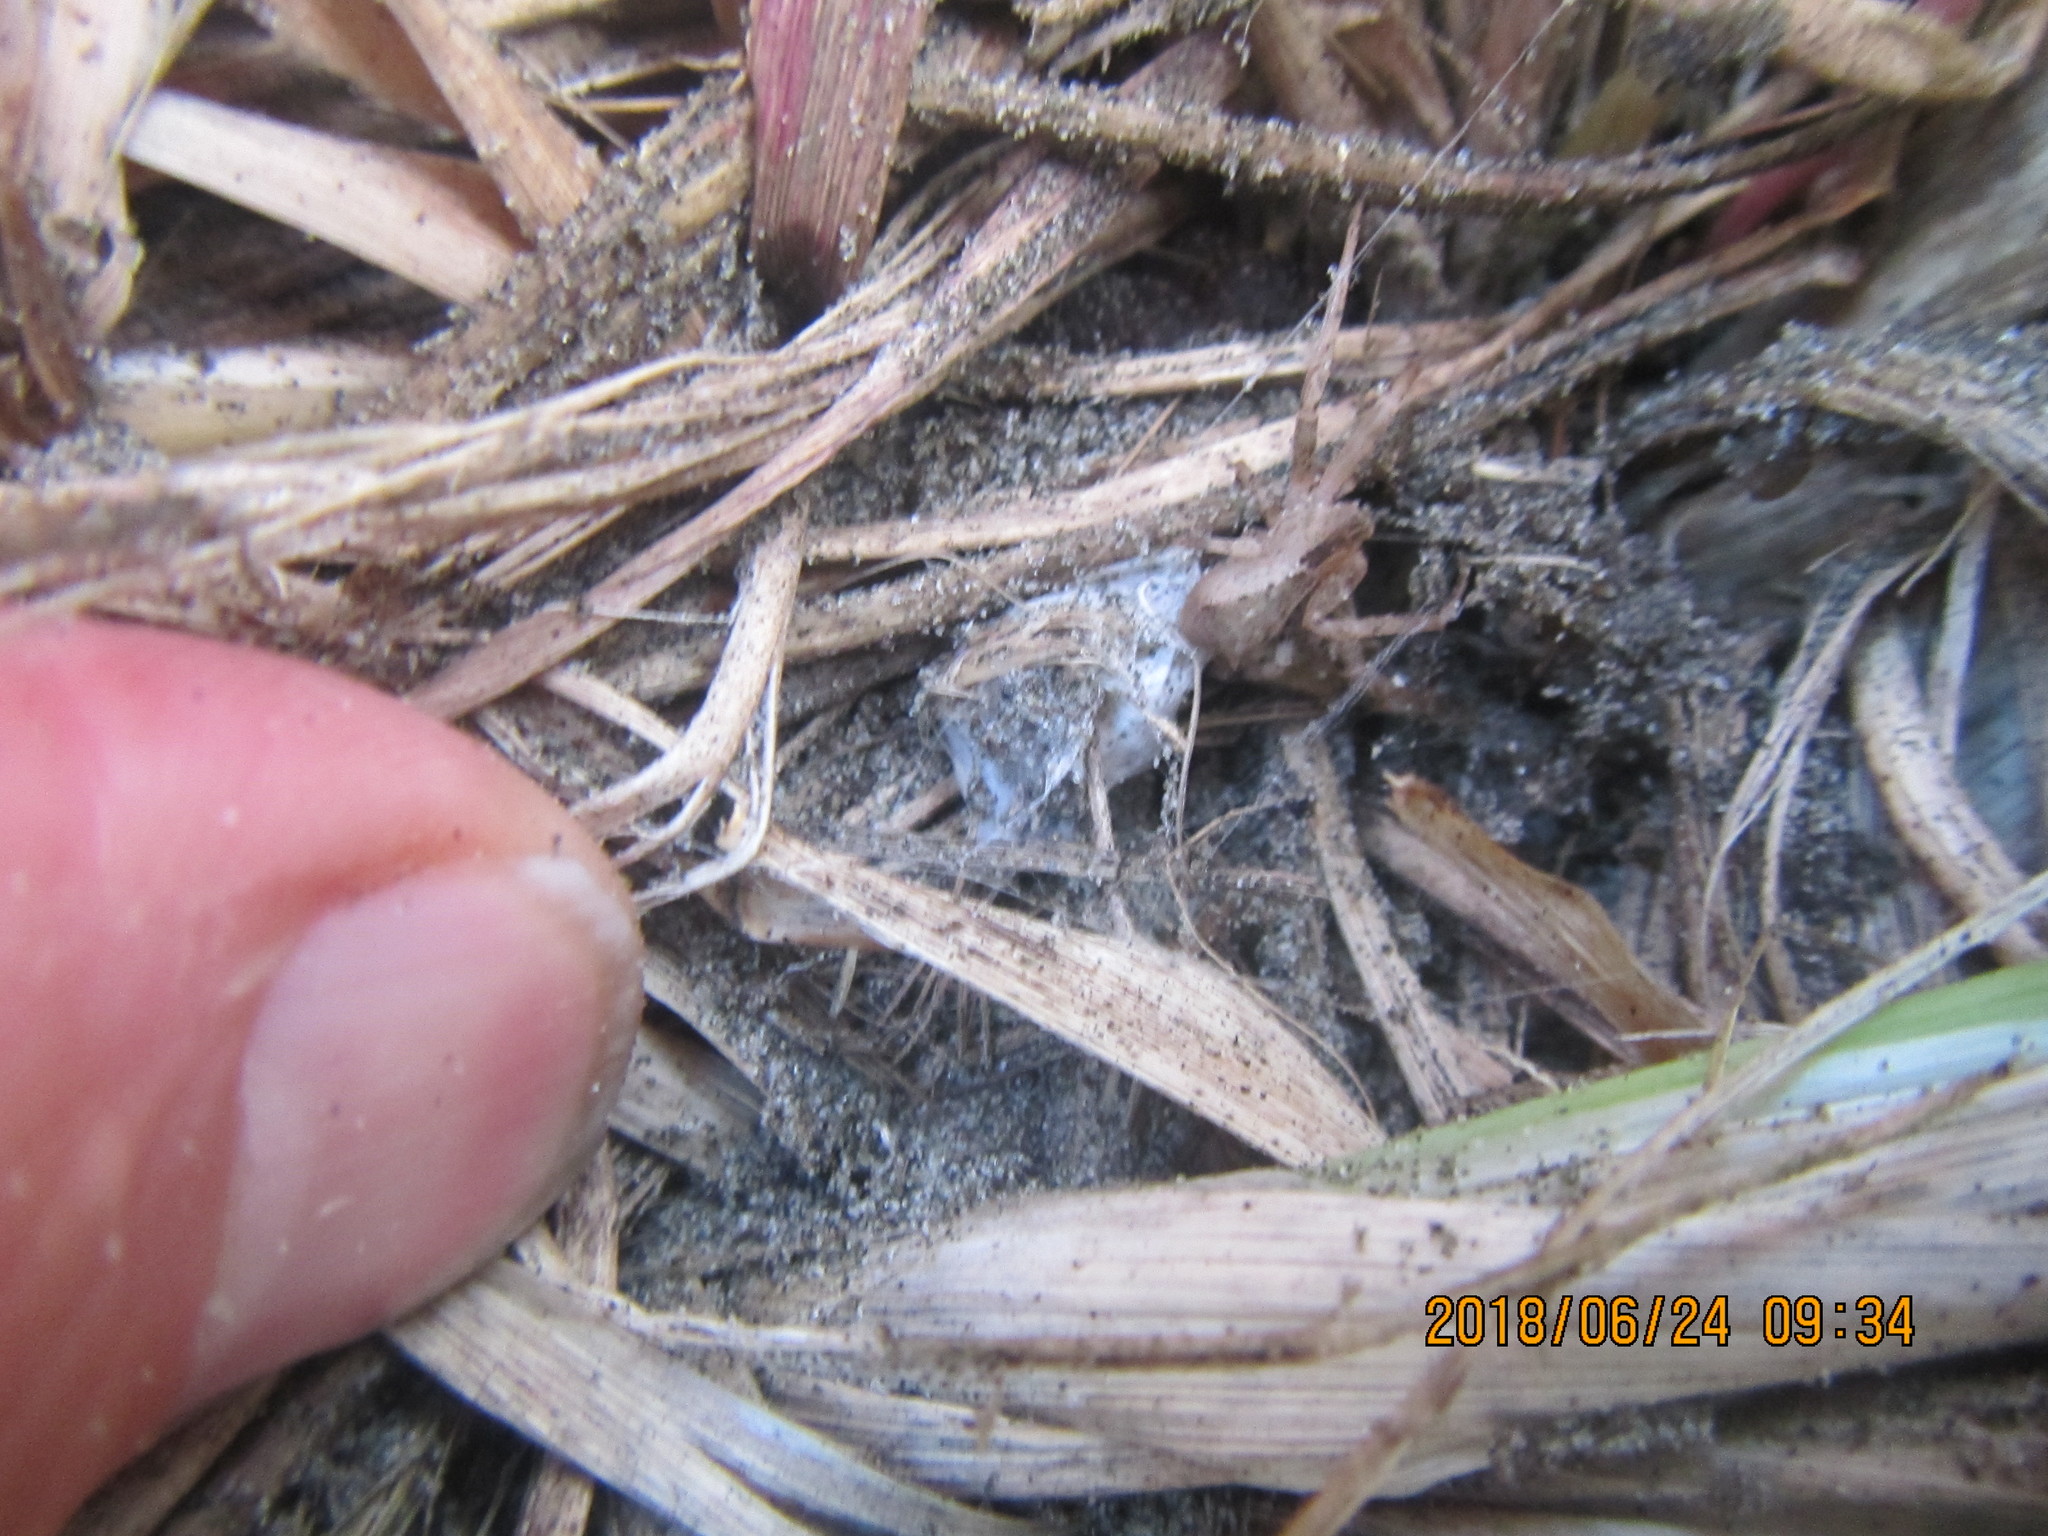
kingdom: Animalia
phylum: Arthropoda
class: Arachnida
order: Araneae
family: Thomisidae
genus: Sidymella
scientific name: Sidymella trapezia
